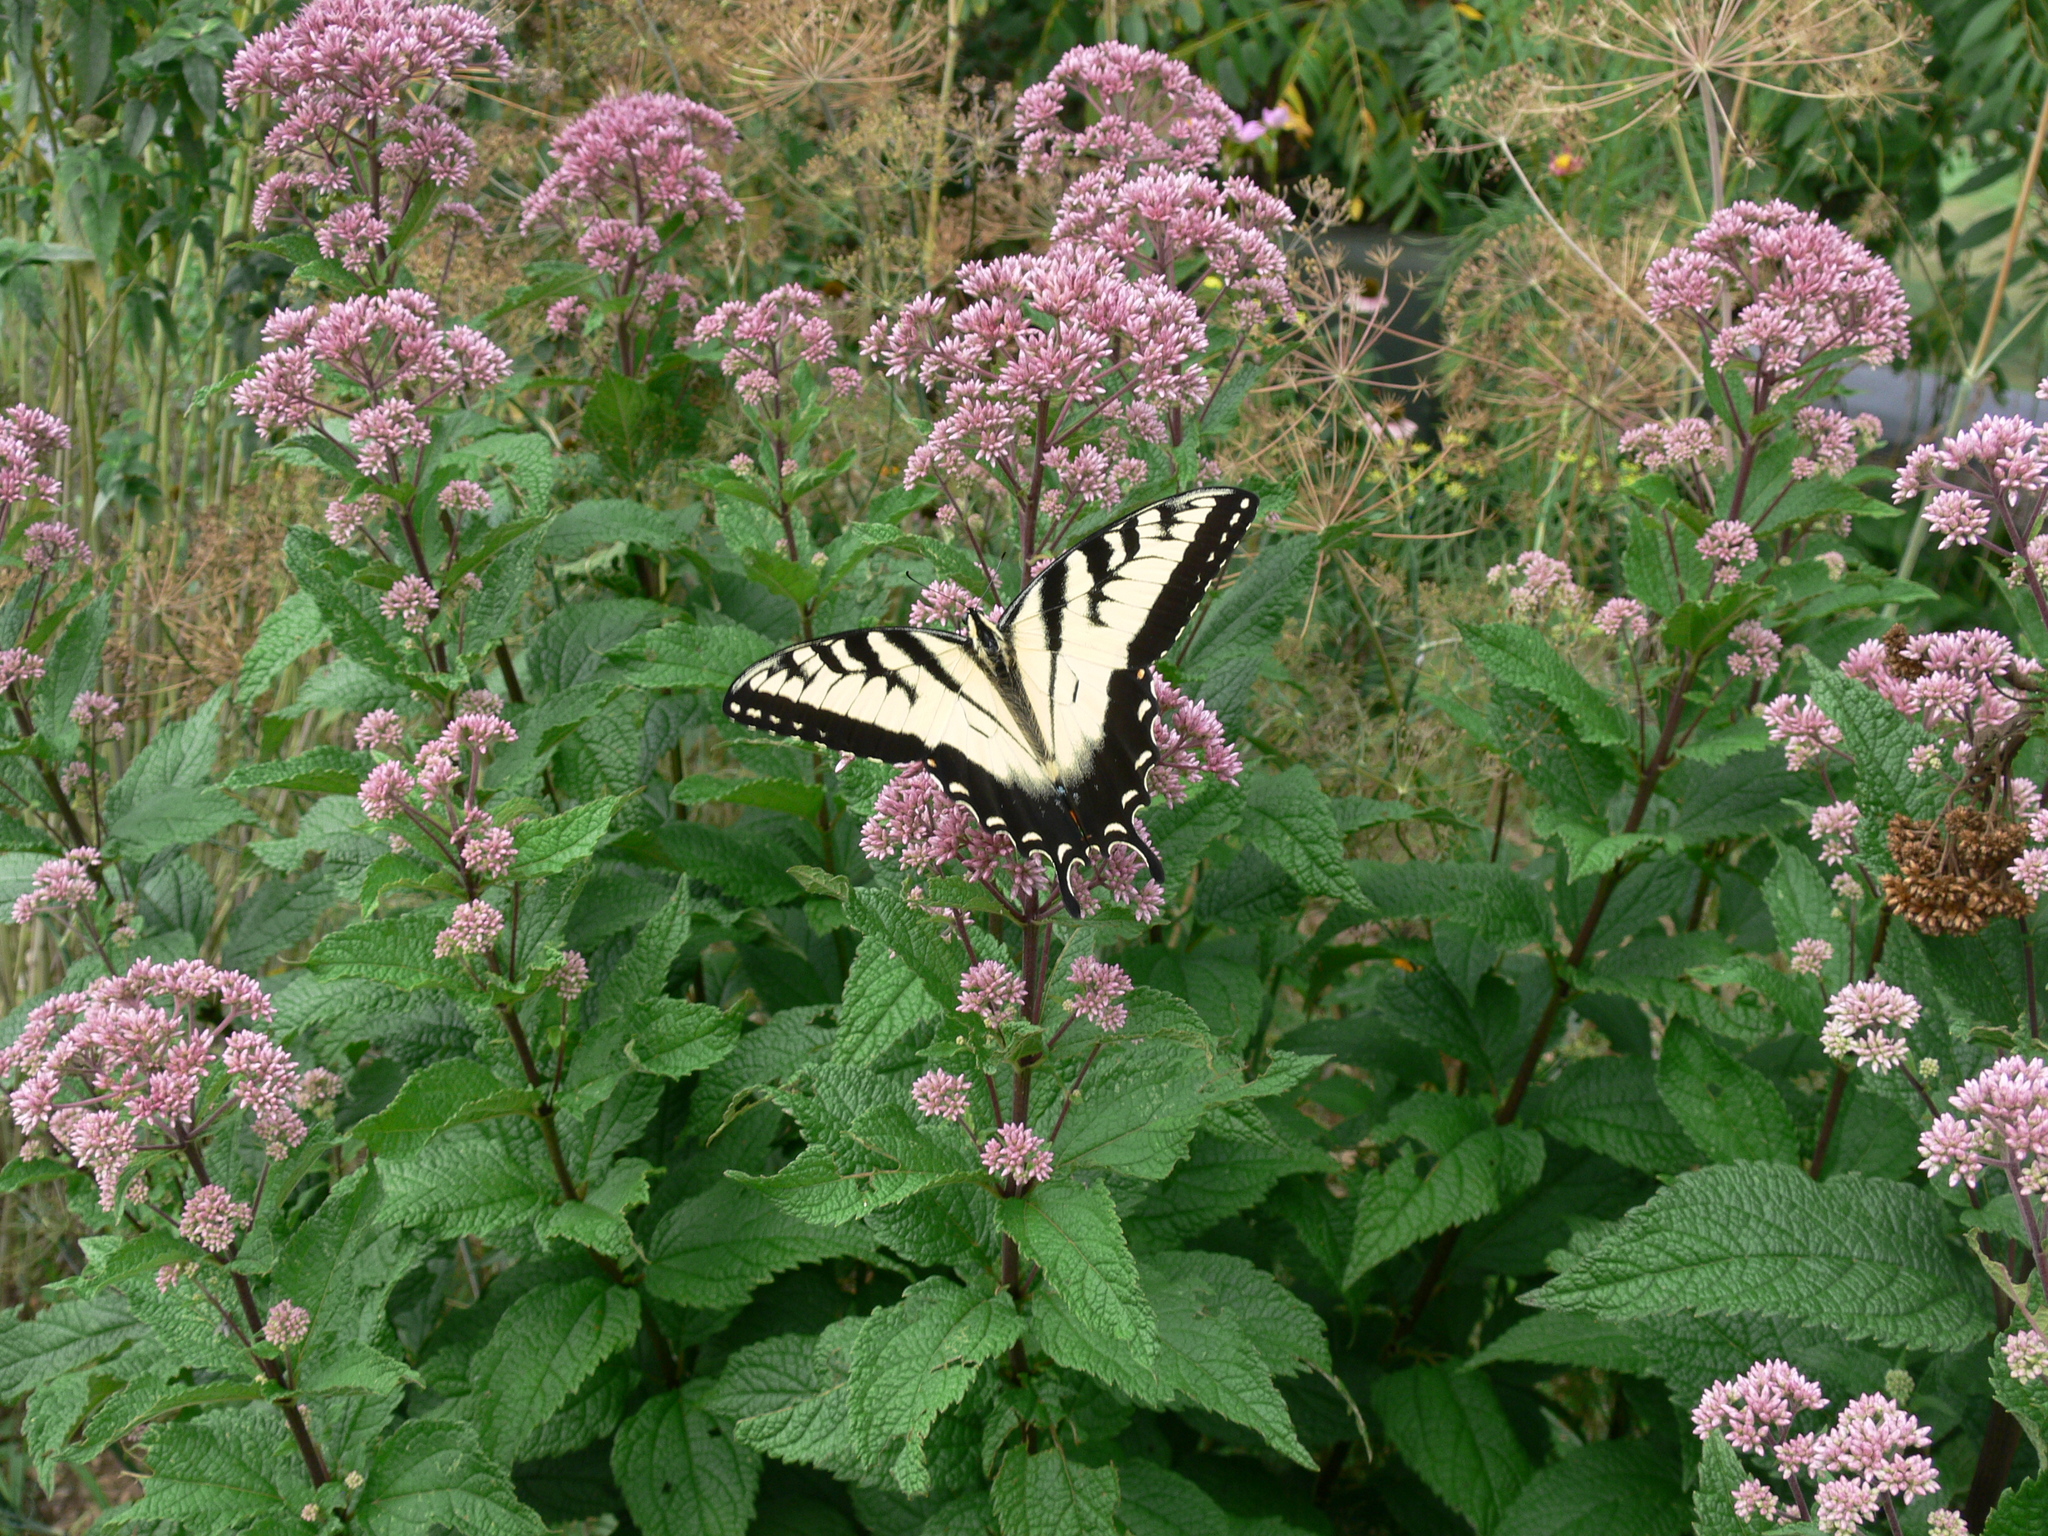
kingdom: Animalia
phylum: Arthropoda
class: Insecta
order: Lepidoptera
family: Papilionidae
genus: Papilio
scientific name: Papilio glaucus
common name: Tiger swallowtail
